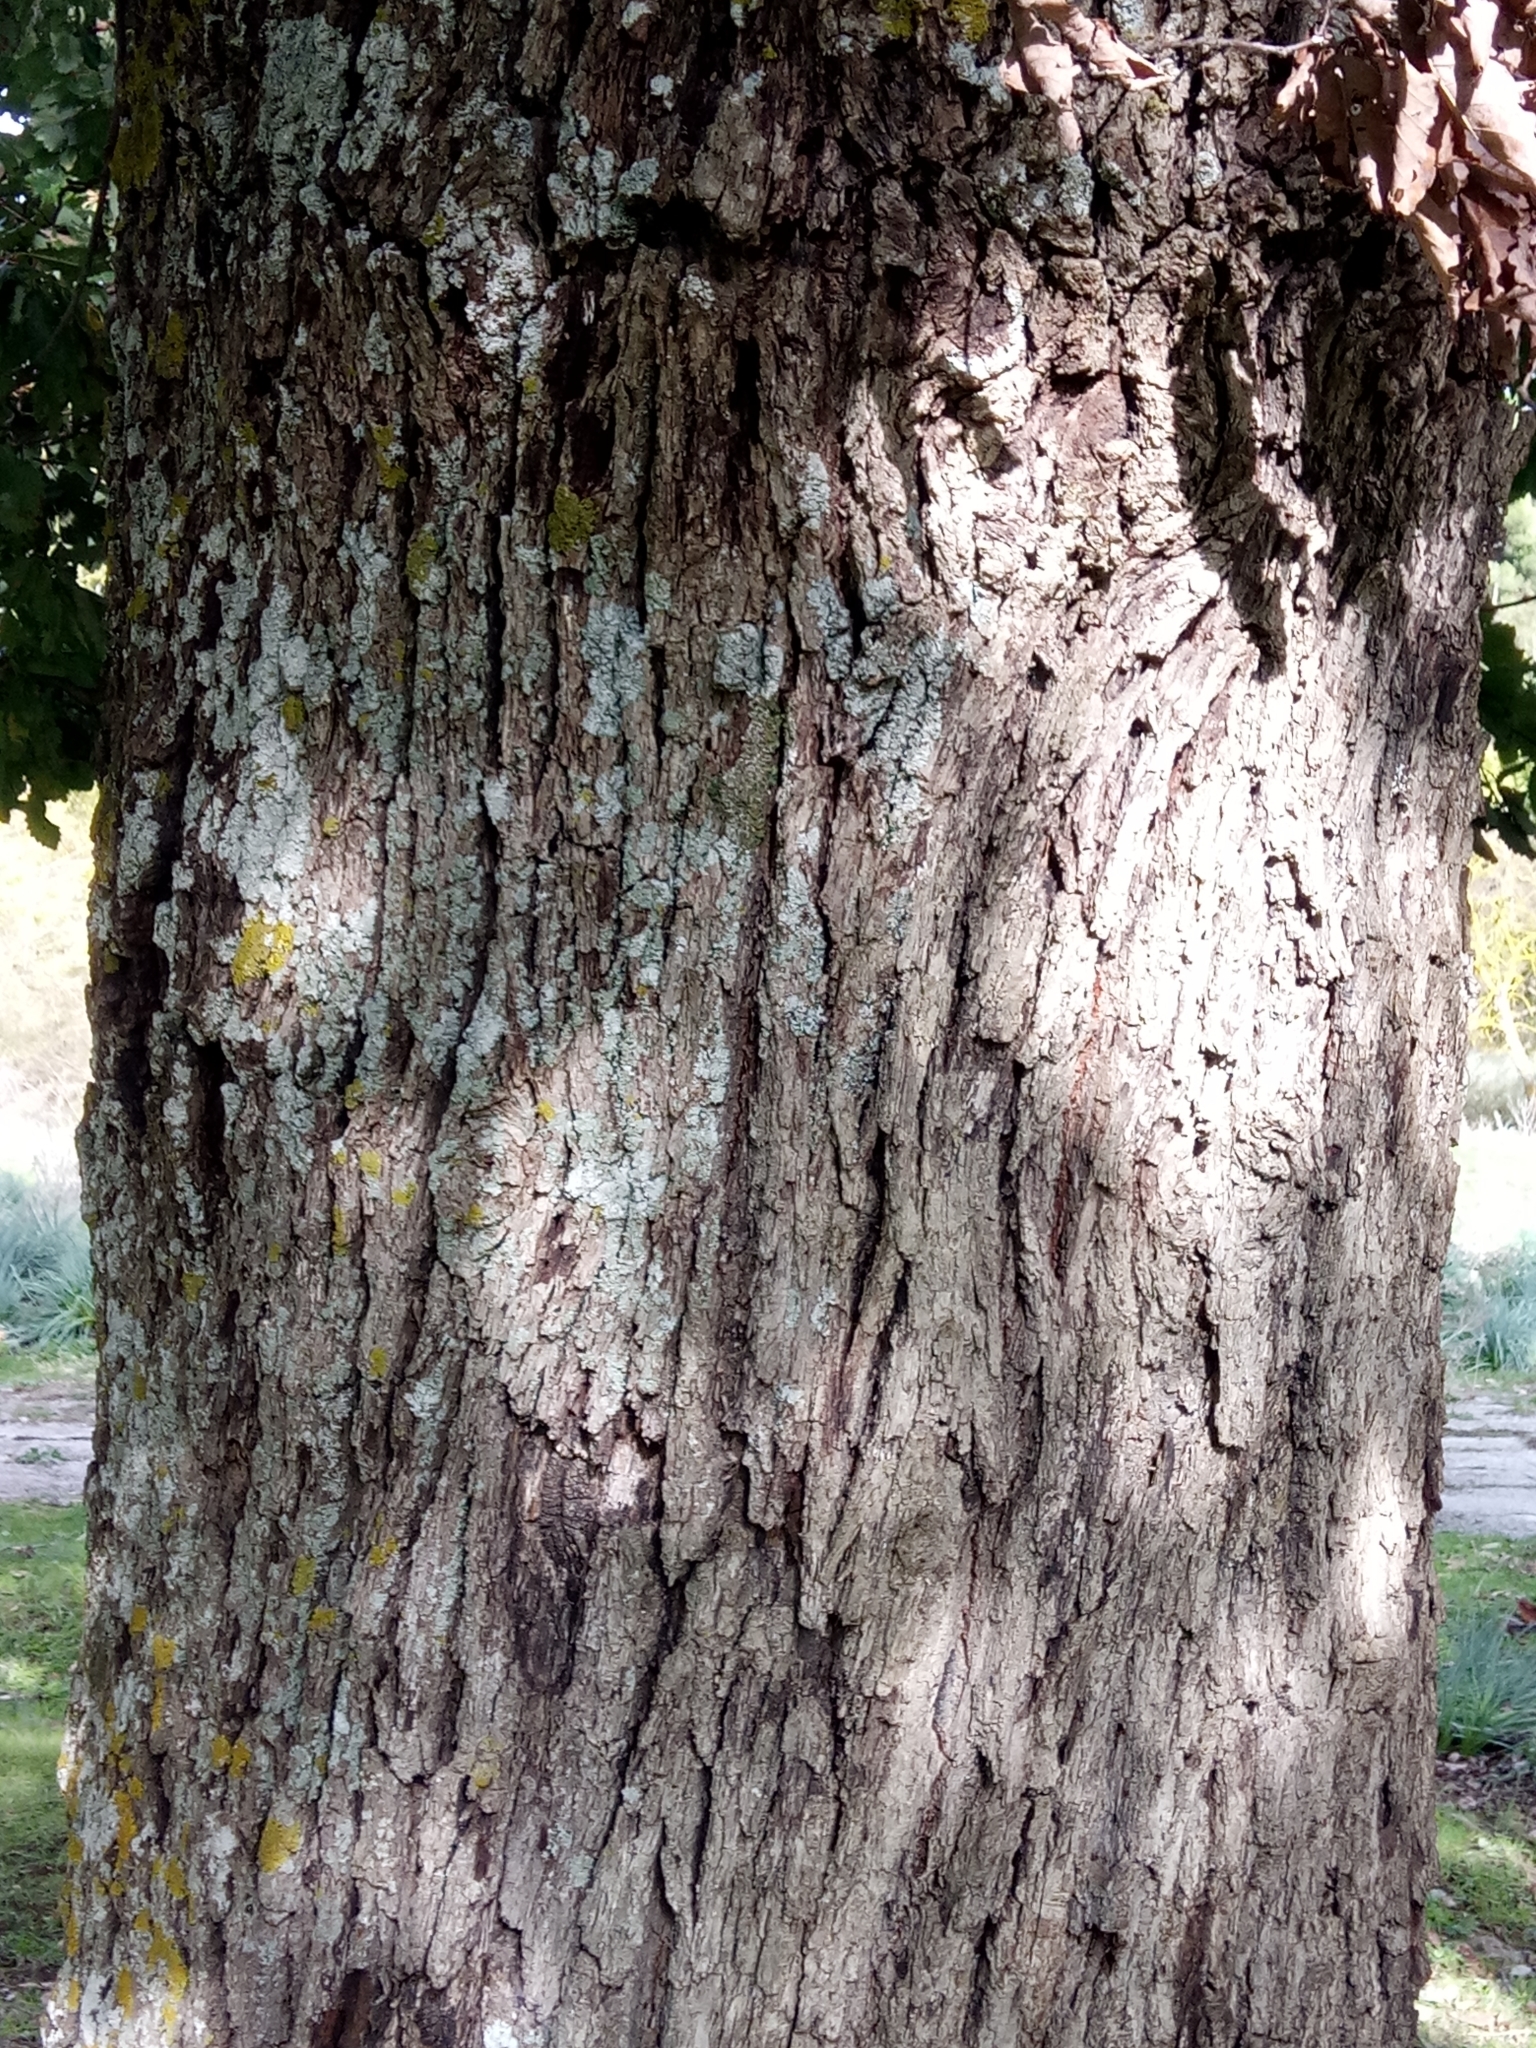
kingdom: Plantae
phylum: Tracheophyta
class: Magnoliopsida
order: Fagales
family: Fagaceae
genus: Quercus
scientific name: Quercus canariensis
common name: Algerian oak
